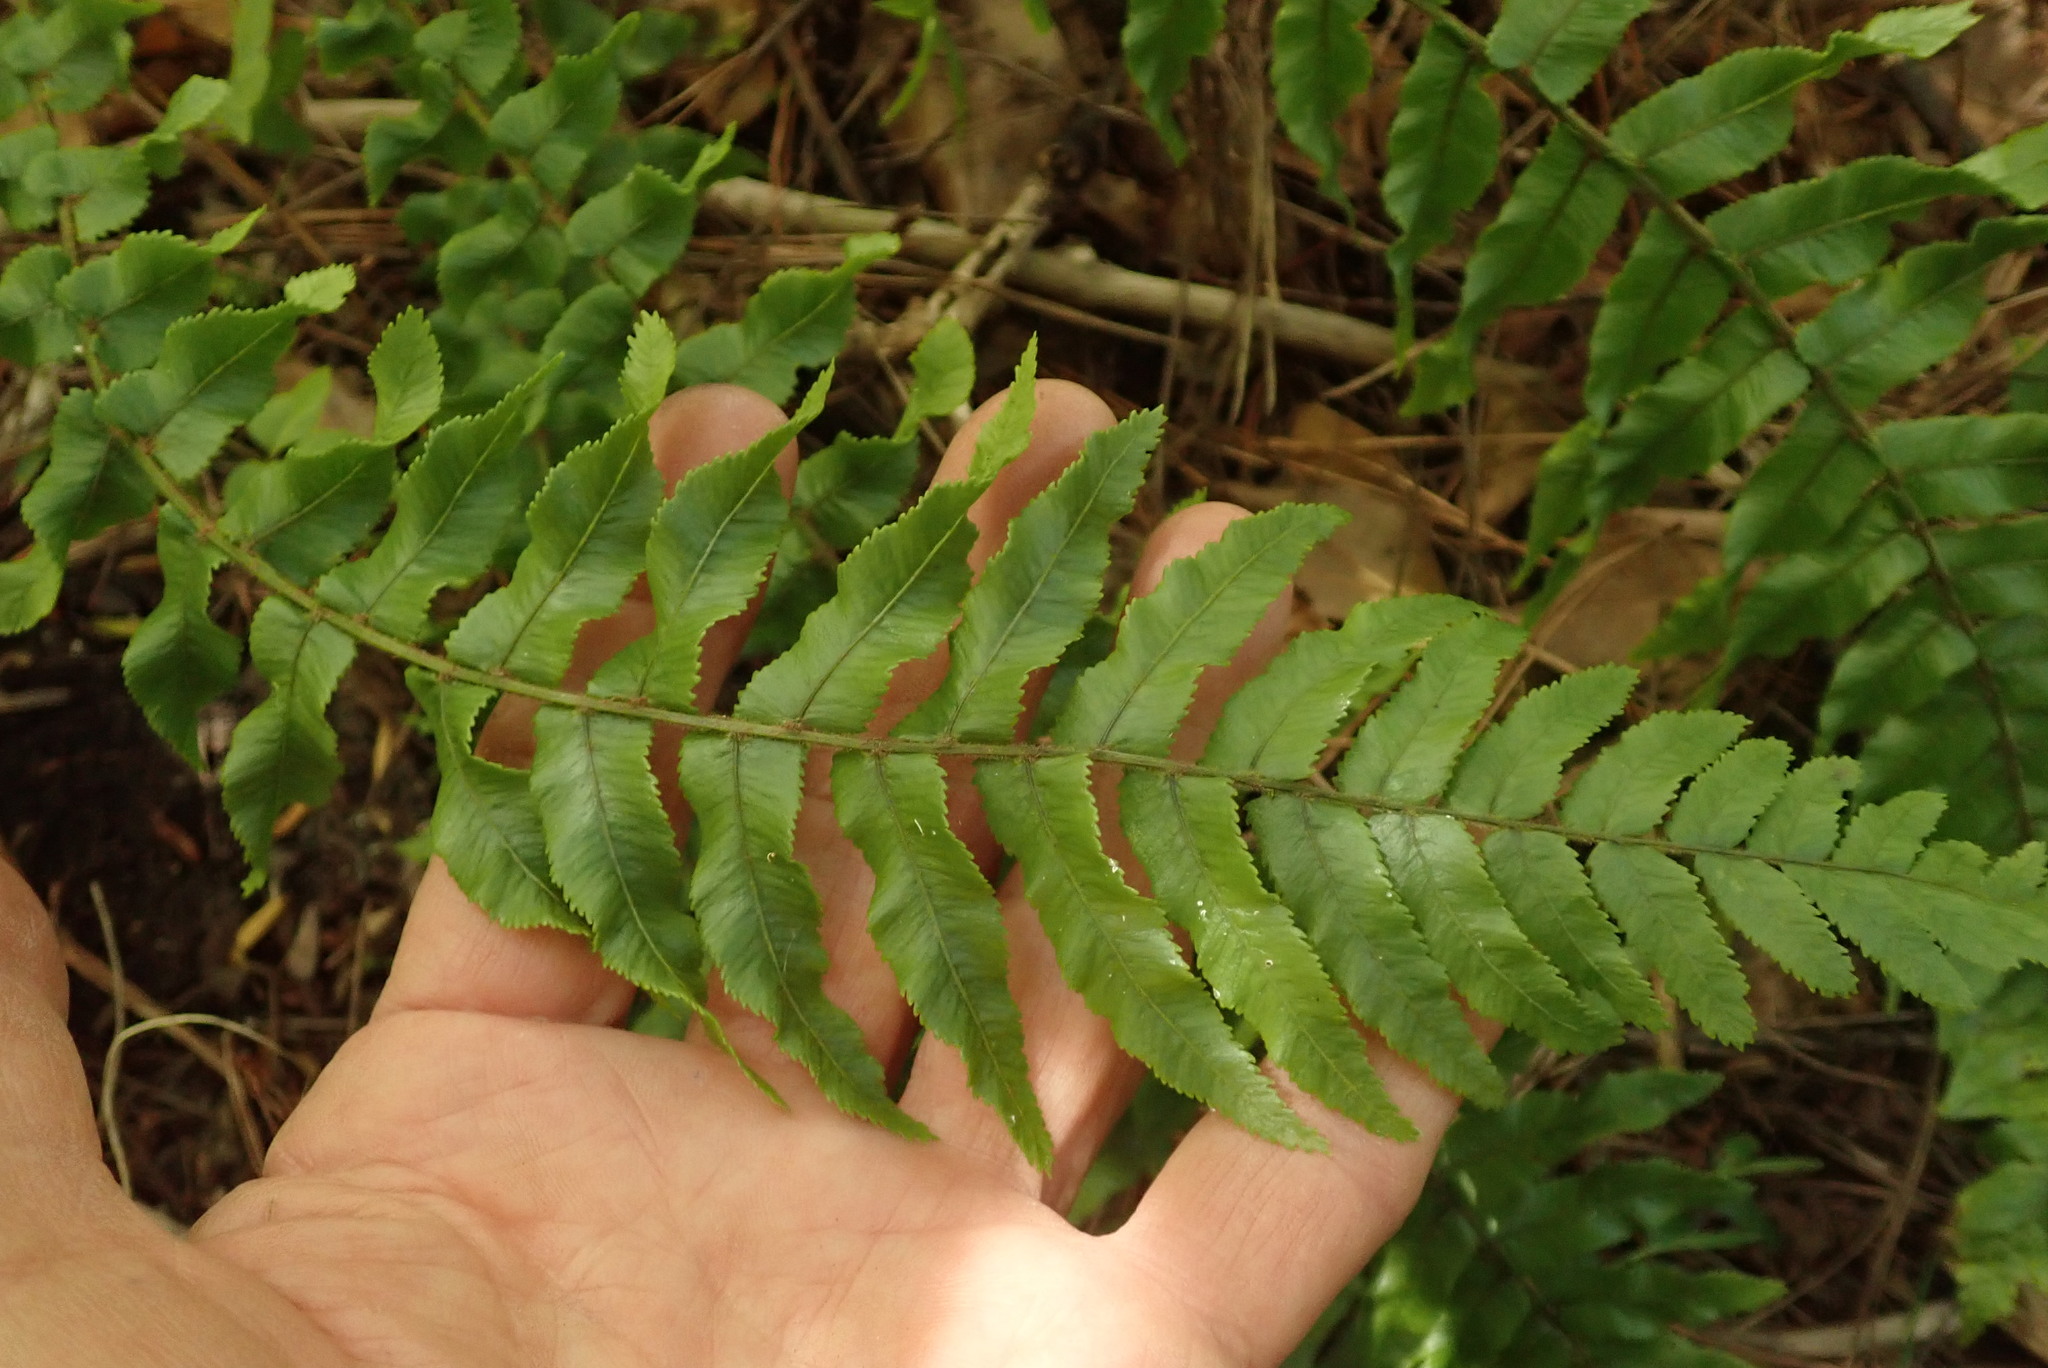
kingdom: Plantae
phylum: Tracheophyta
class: Polypodiopsida
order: Polypodiales
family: Blechnaceae
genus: Icarus
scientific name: Icarus filiformis
